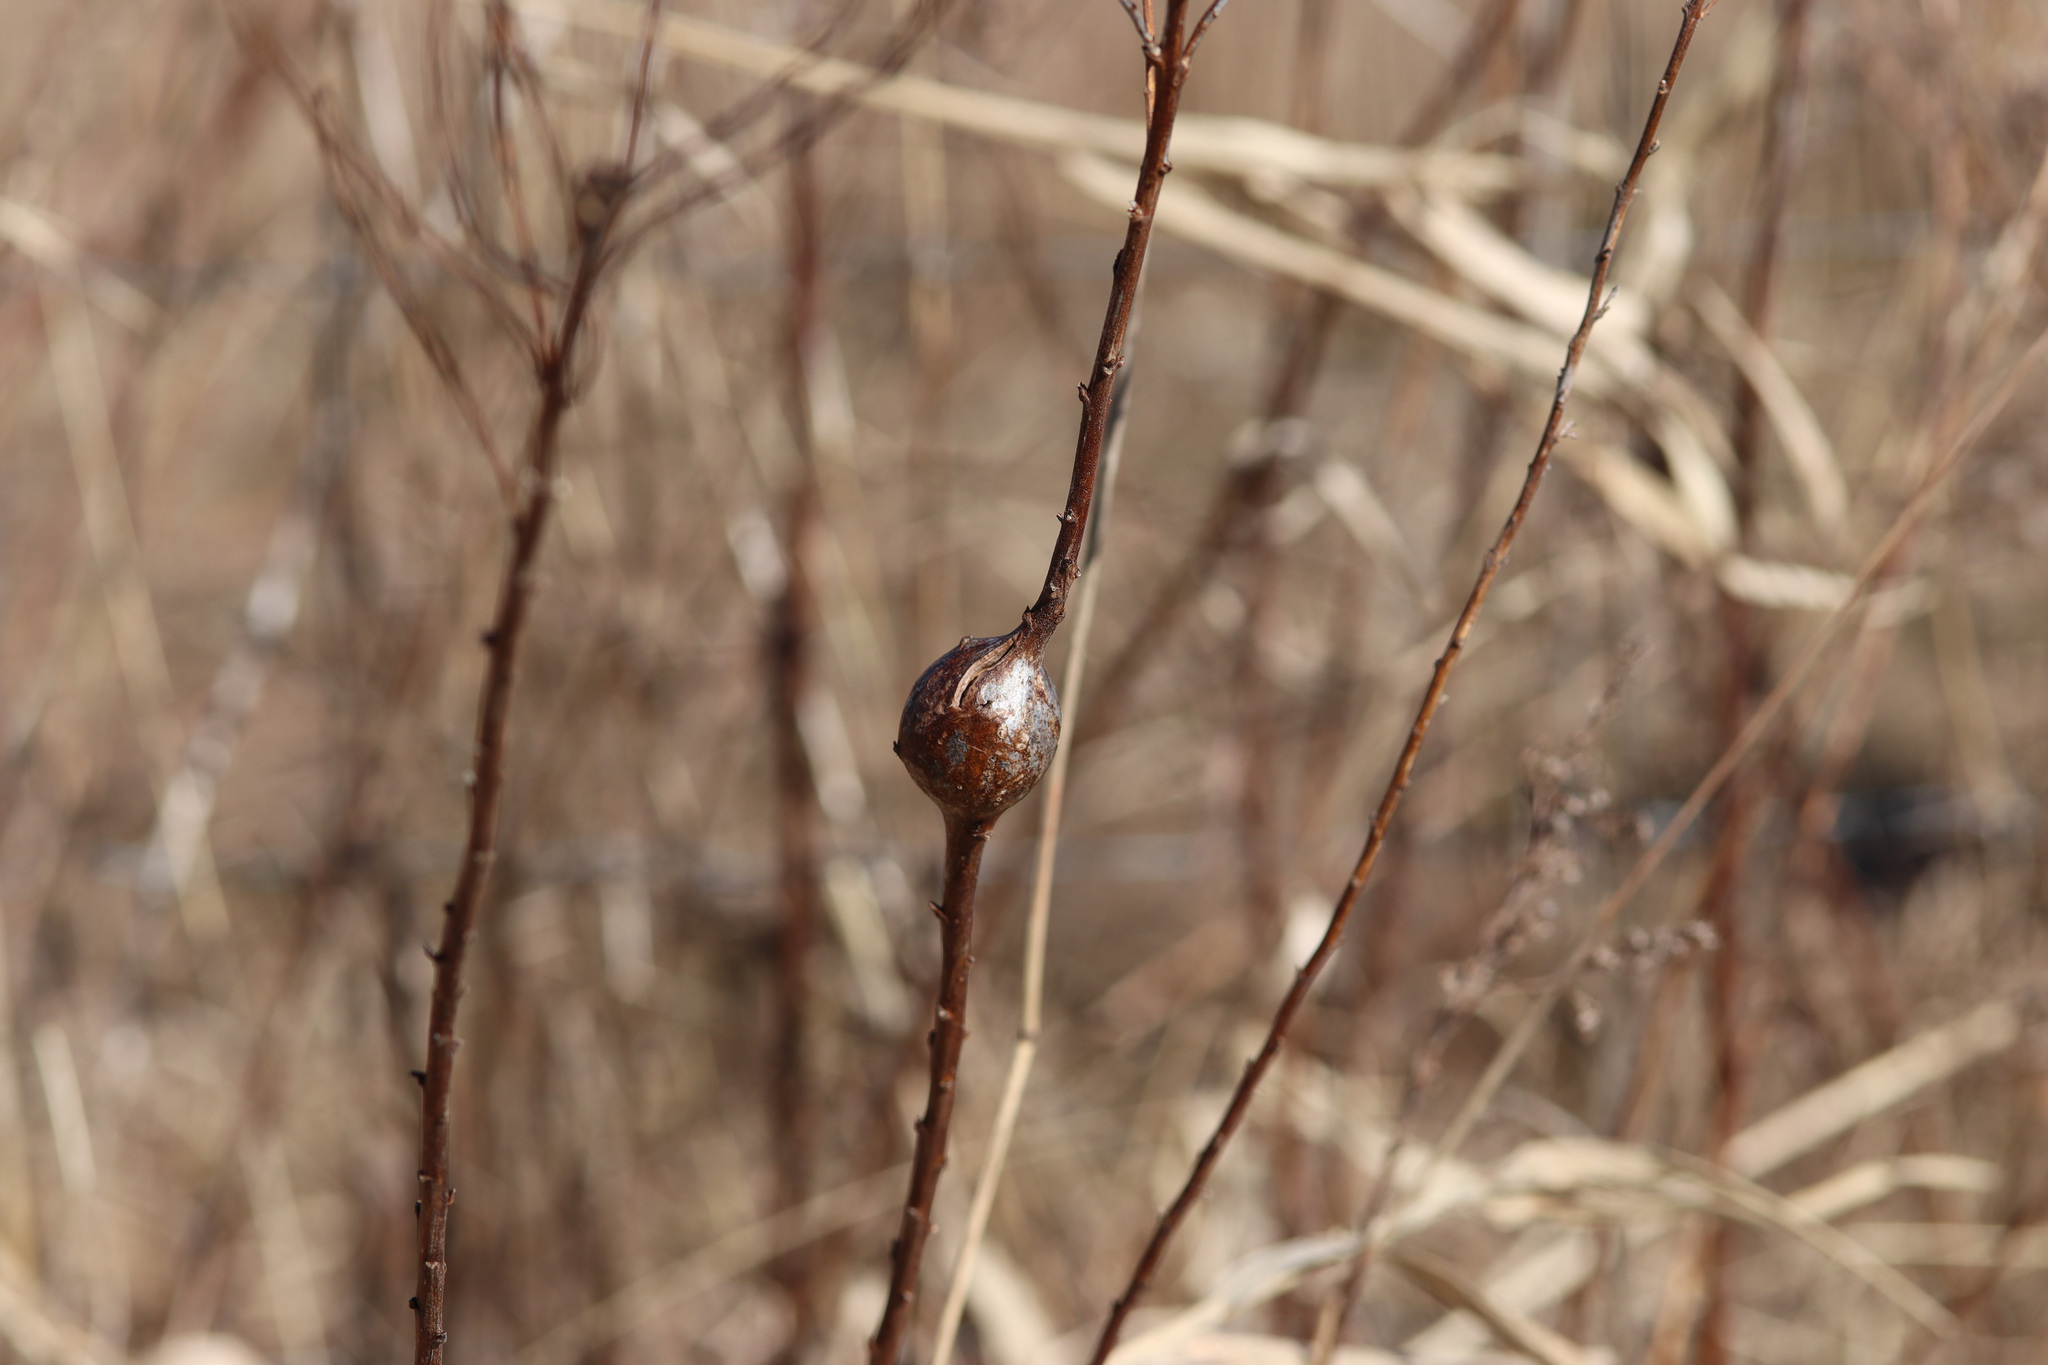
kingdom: Animalia
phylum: Arthropoda
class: Insecta
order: Diptera
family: Tephritidae
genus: Eurosta
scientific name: Eurosta solidaginis
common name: Goldenrod gall fly
